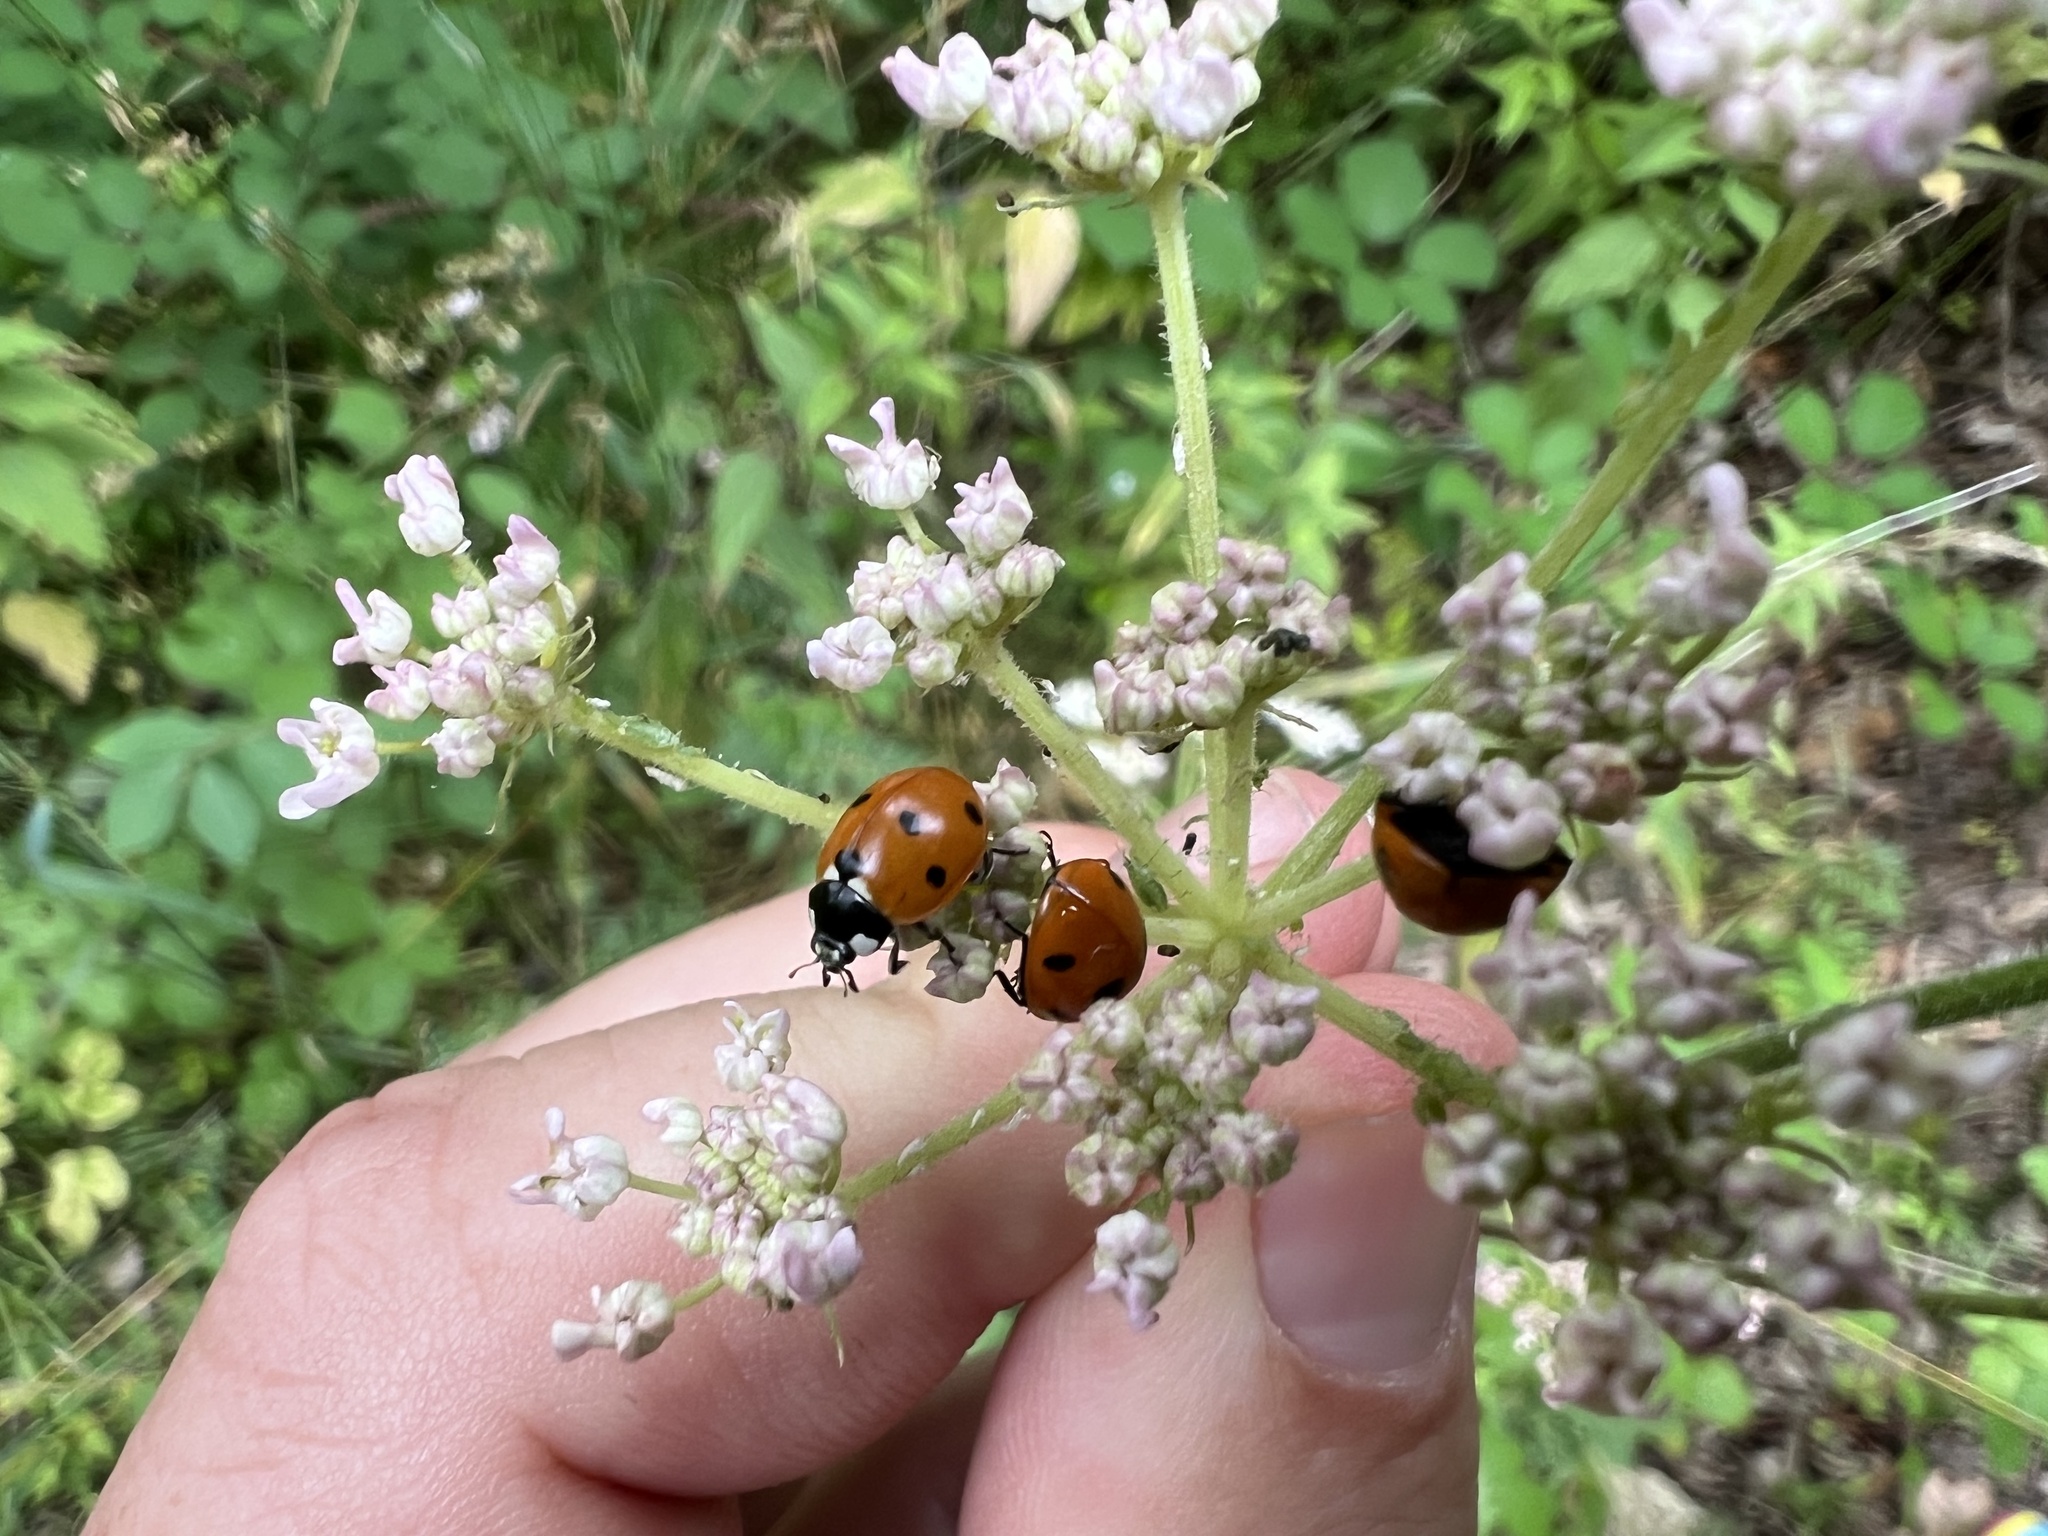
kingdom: Animalia
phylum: Arthropoda
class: Insecta
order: Coleoptera
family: Coccinellidae
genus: Coccinella
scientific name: Coccinella septempunctata
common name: Sevenspotted lady beetle
